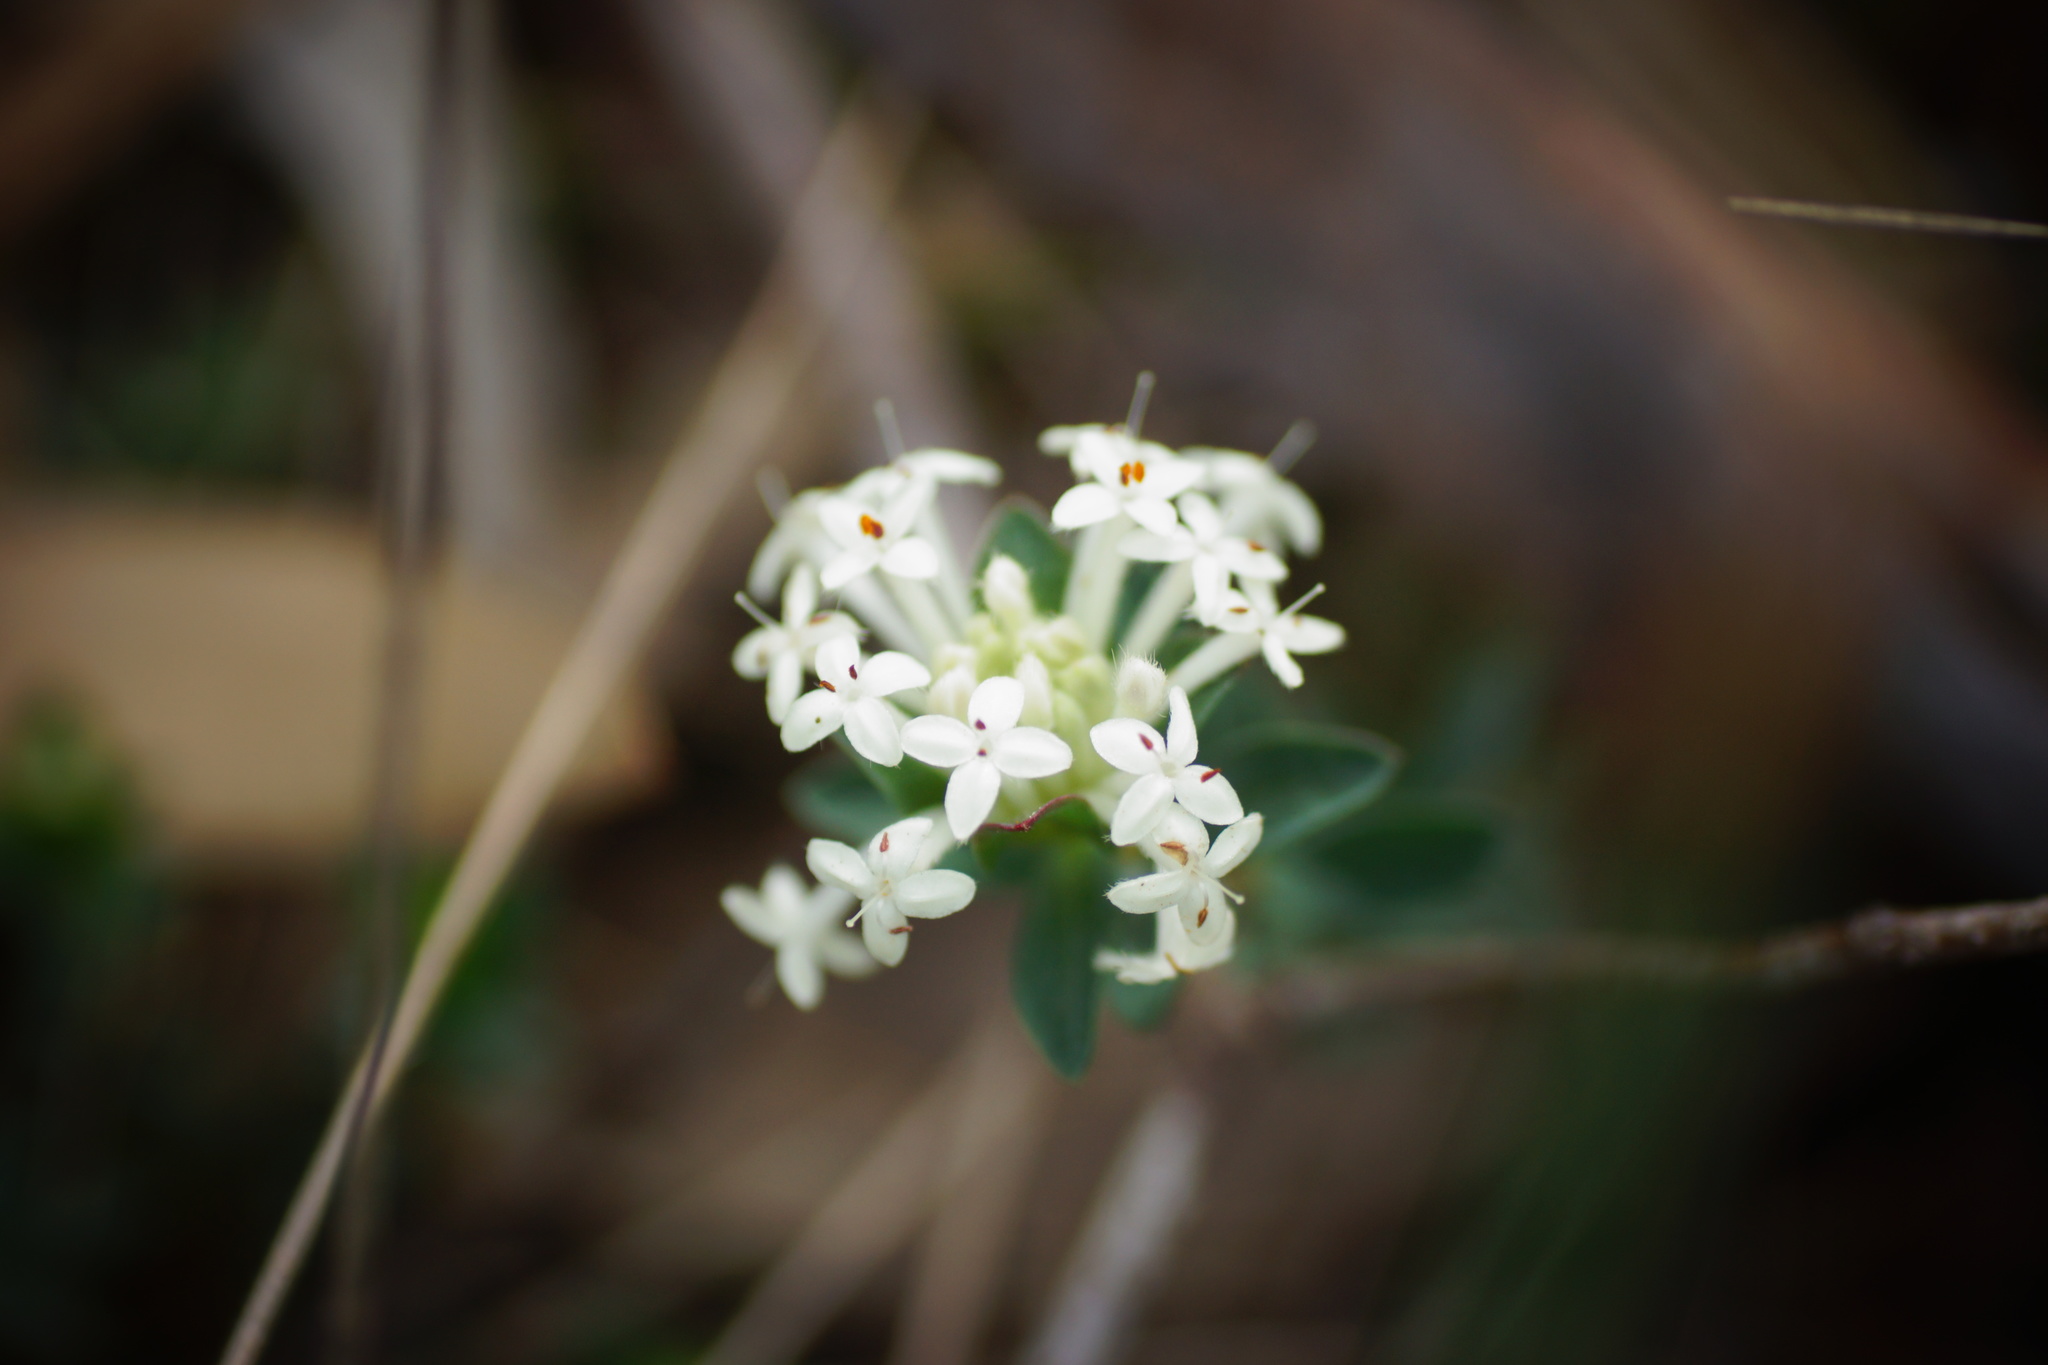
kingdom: Plantae
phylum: Tracheophyta
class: Magnoliopsida
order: Malvales
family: Thymelaeaceae
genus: Pimelea
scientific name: Pimelea humilis
